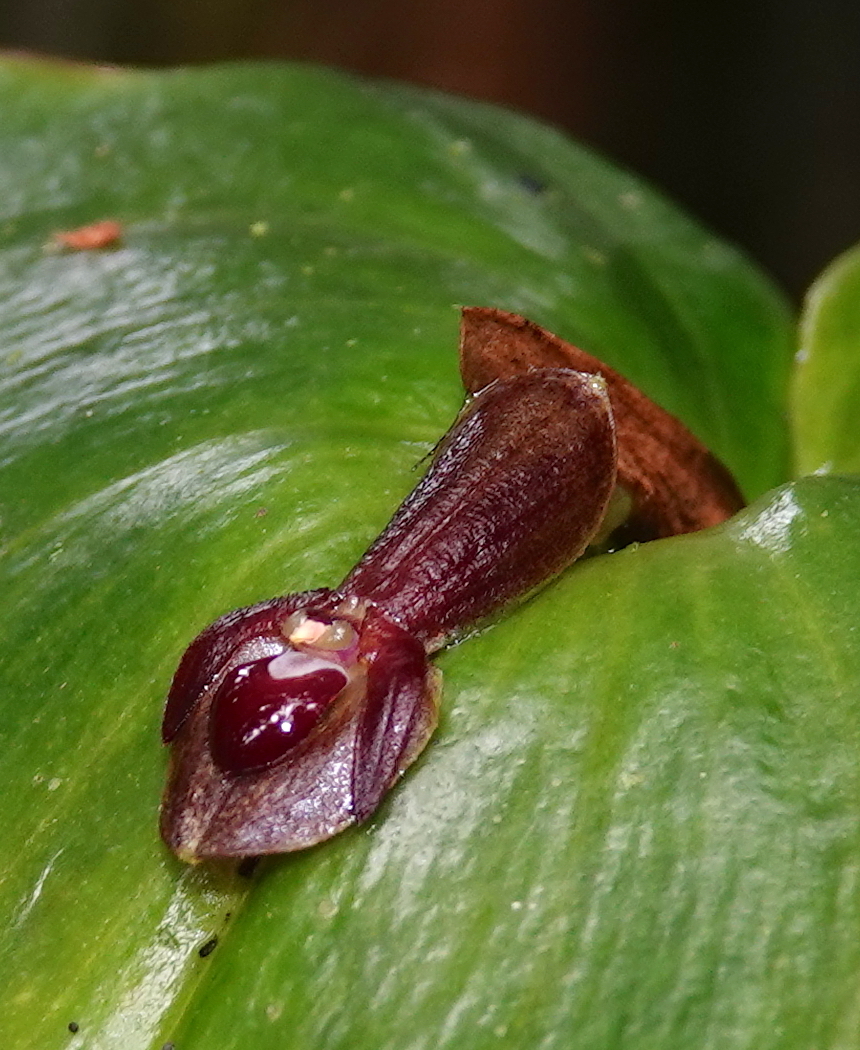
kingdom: Plantae
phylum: Tracheophyta
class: Liliopsida
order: Asparagales
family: Orchidaceae
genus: Pleurothallis
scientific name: Pleurothallis cordata
